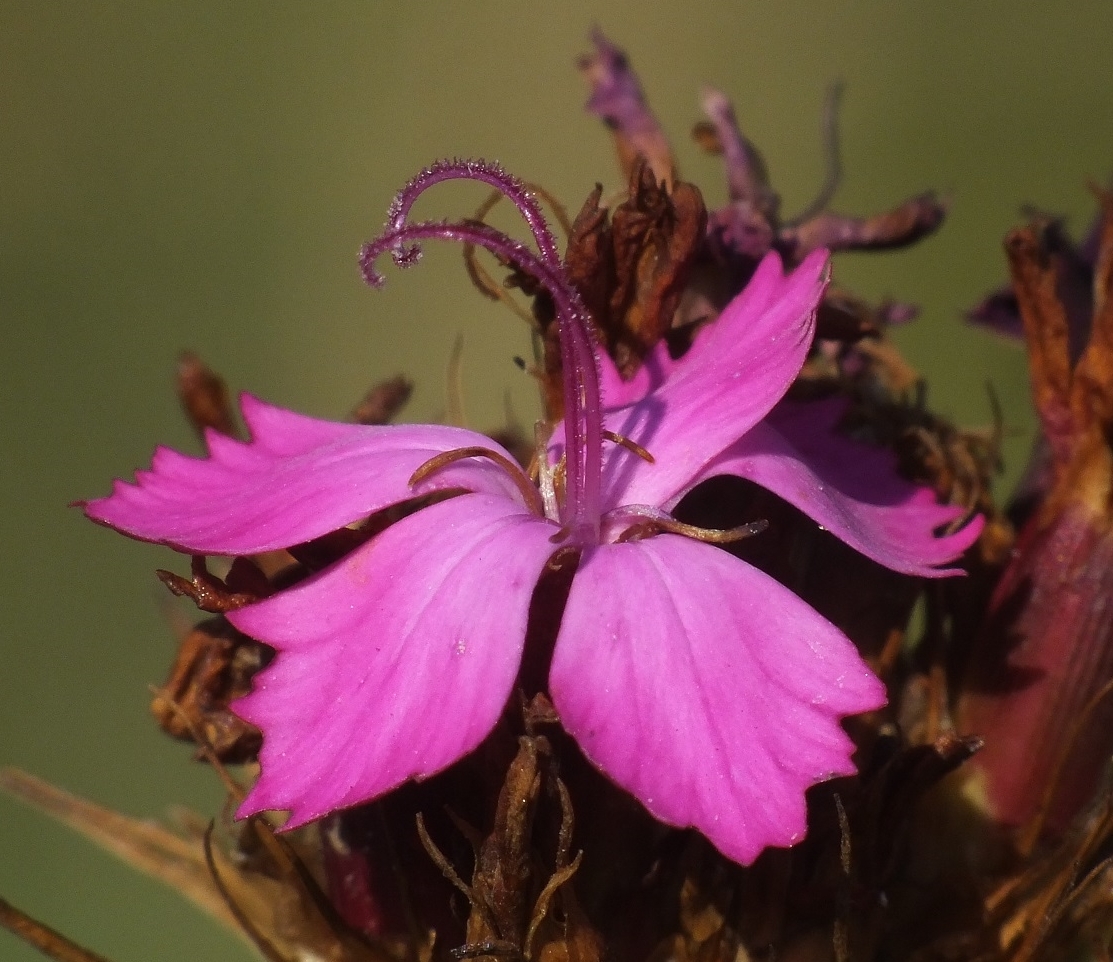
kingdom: Plantae
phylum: Tracheophyta
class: Magnoliopsida
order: Caryophyllales
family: Caryophyllaceae
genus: Dianthus
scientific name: Dianthus capitatus
